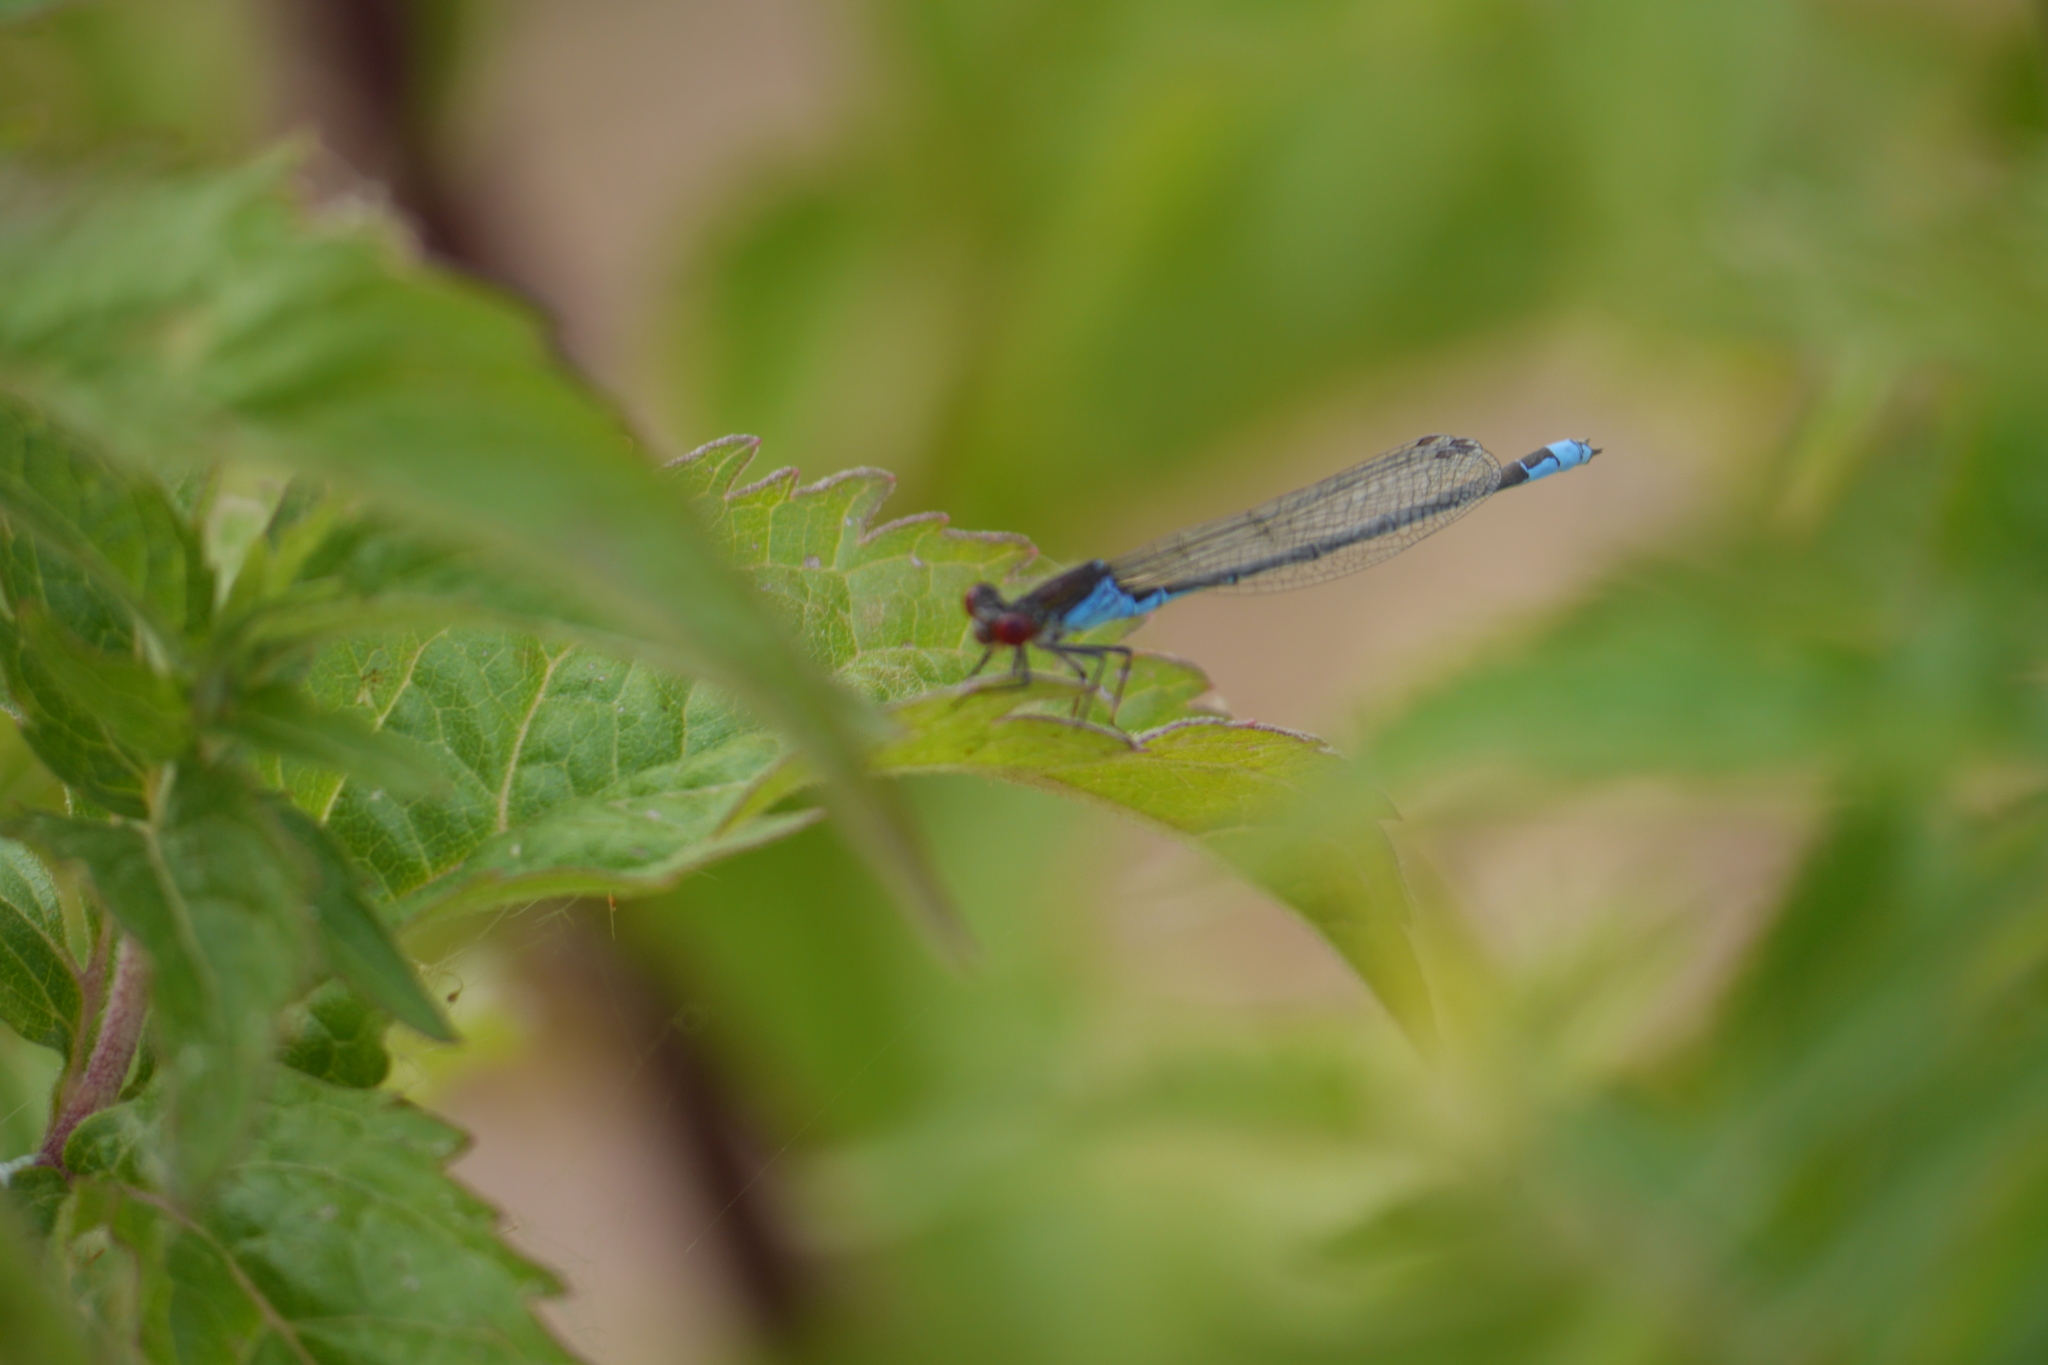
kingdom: Animalia
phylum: Arthropoda
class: Insecta
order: Odonata
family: Coenagrionidae
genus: Erythromma
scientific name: Erythromma viridulum
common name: Small red-eyed damselfly
